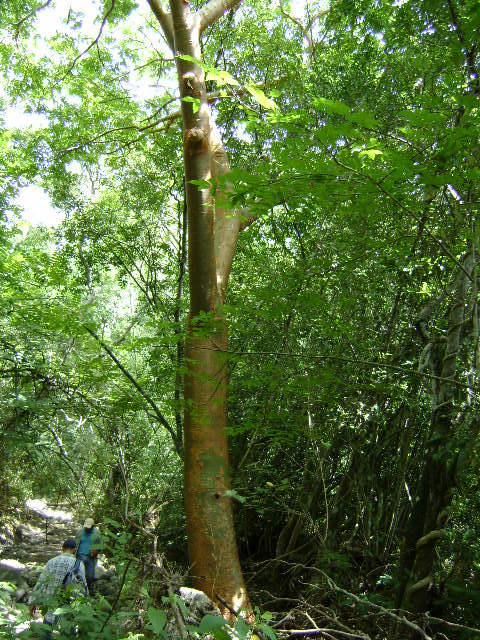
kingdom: Plantae
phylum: Tracheophyta
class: Magnoliopsida
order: Sapindales
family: Burseraceae
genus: Bursera
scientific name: Bursera simaruba
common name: Turpentine tree
